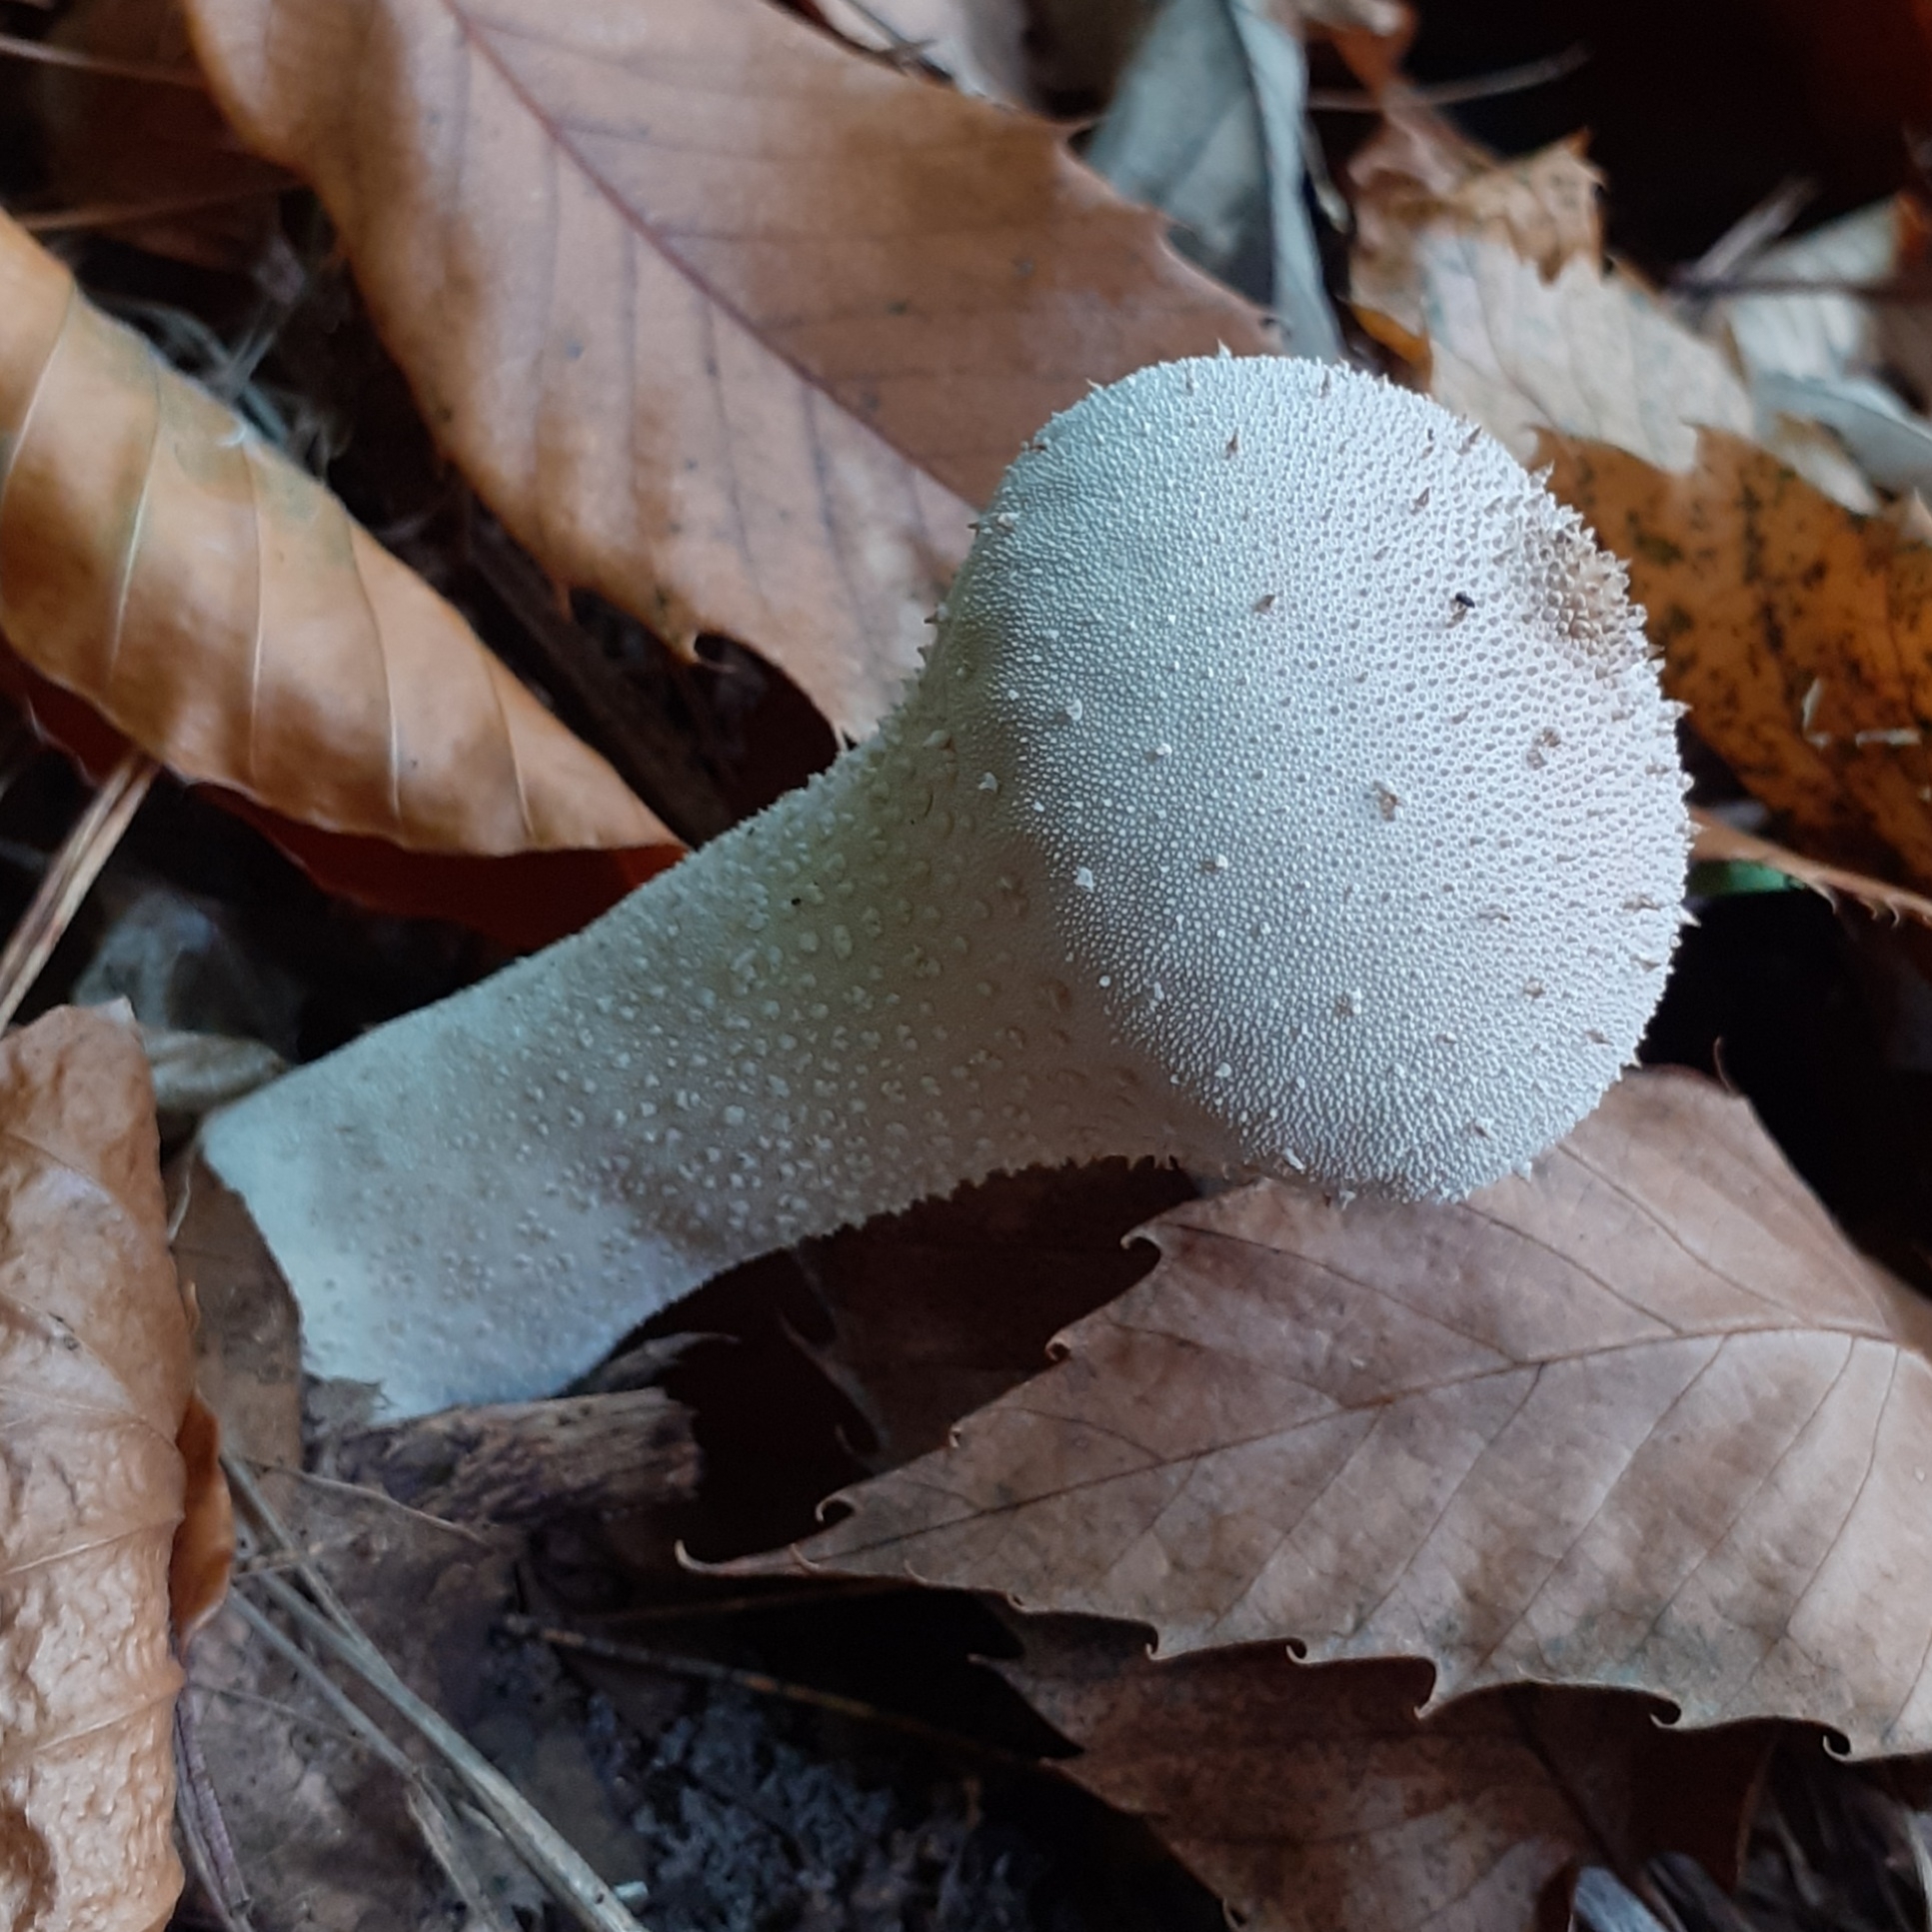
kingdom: Fungi
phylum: Basidiomycota
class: Agaricomycetes
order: Agaricales
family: Lycoperdaceae
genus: Lycoperdon
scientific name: Lycoperdon perlatum
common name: Common puffball
